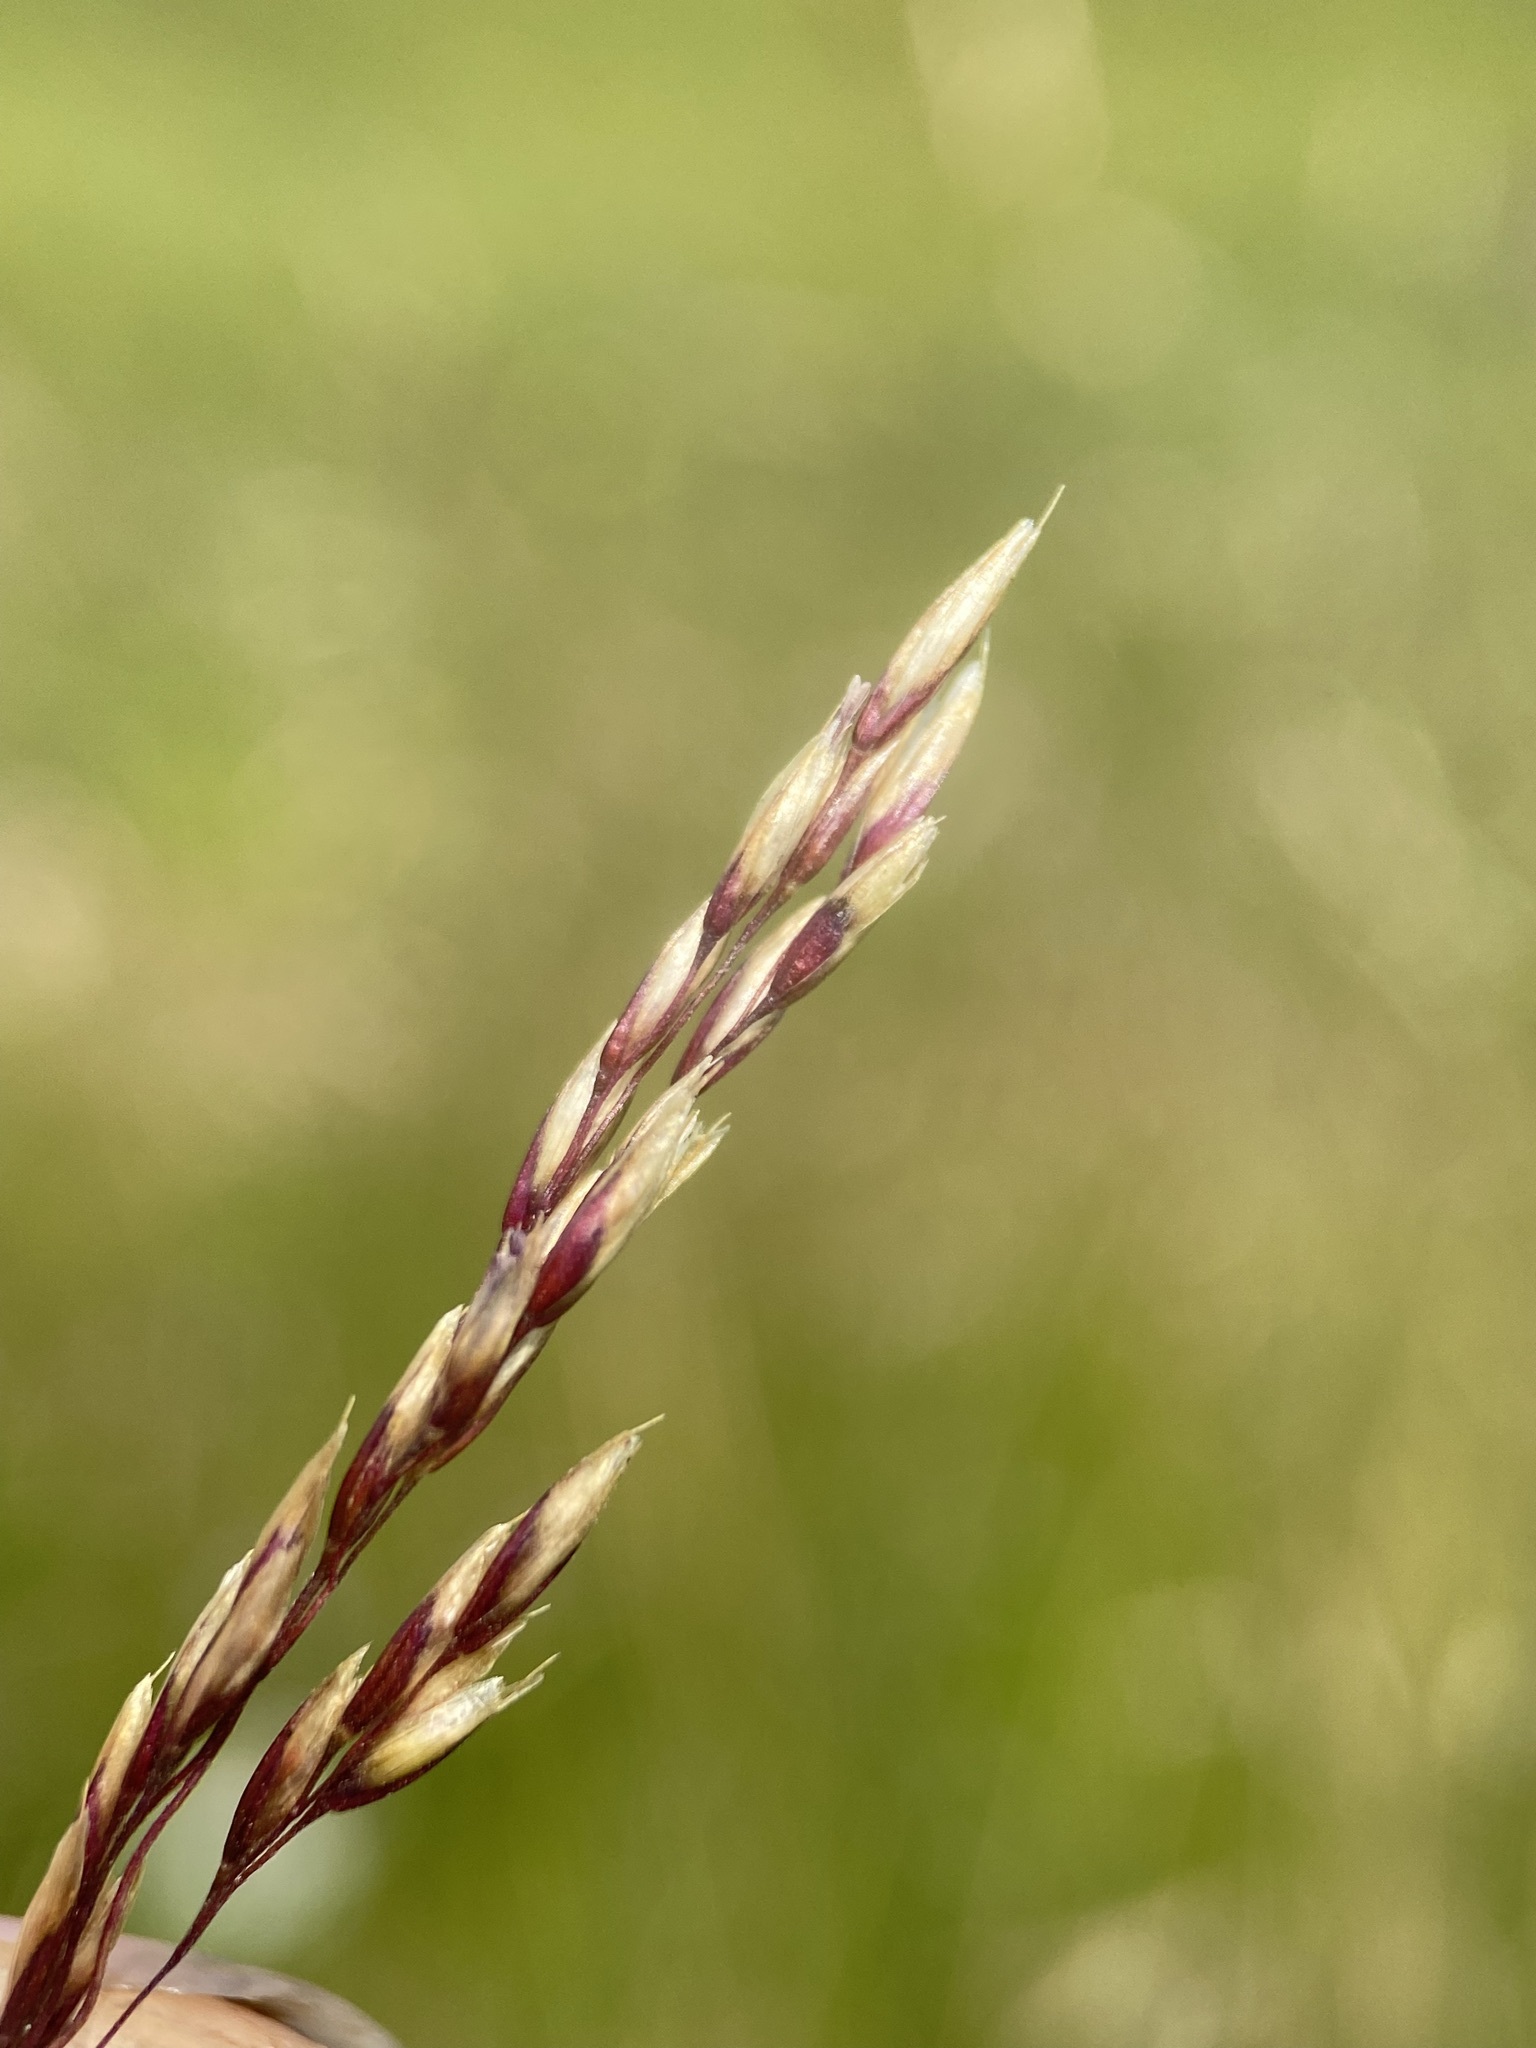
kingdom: Plantae
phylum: Tracheophyta
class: Liliopsida
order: Poales
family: Poaceae
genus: Deschampsia
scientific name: Deschampsia cespitosa
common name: Tufted hair-grass
